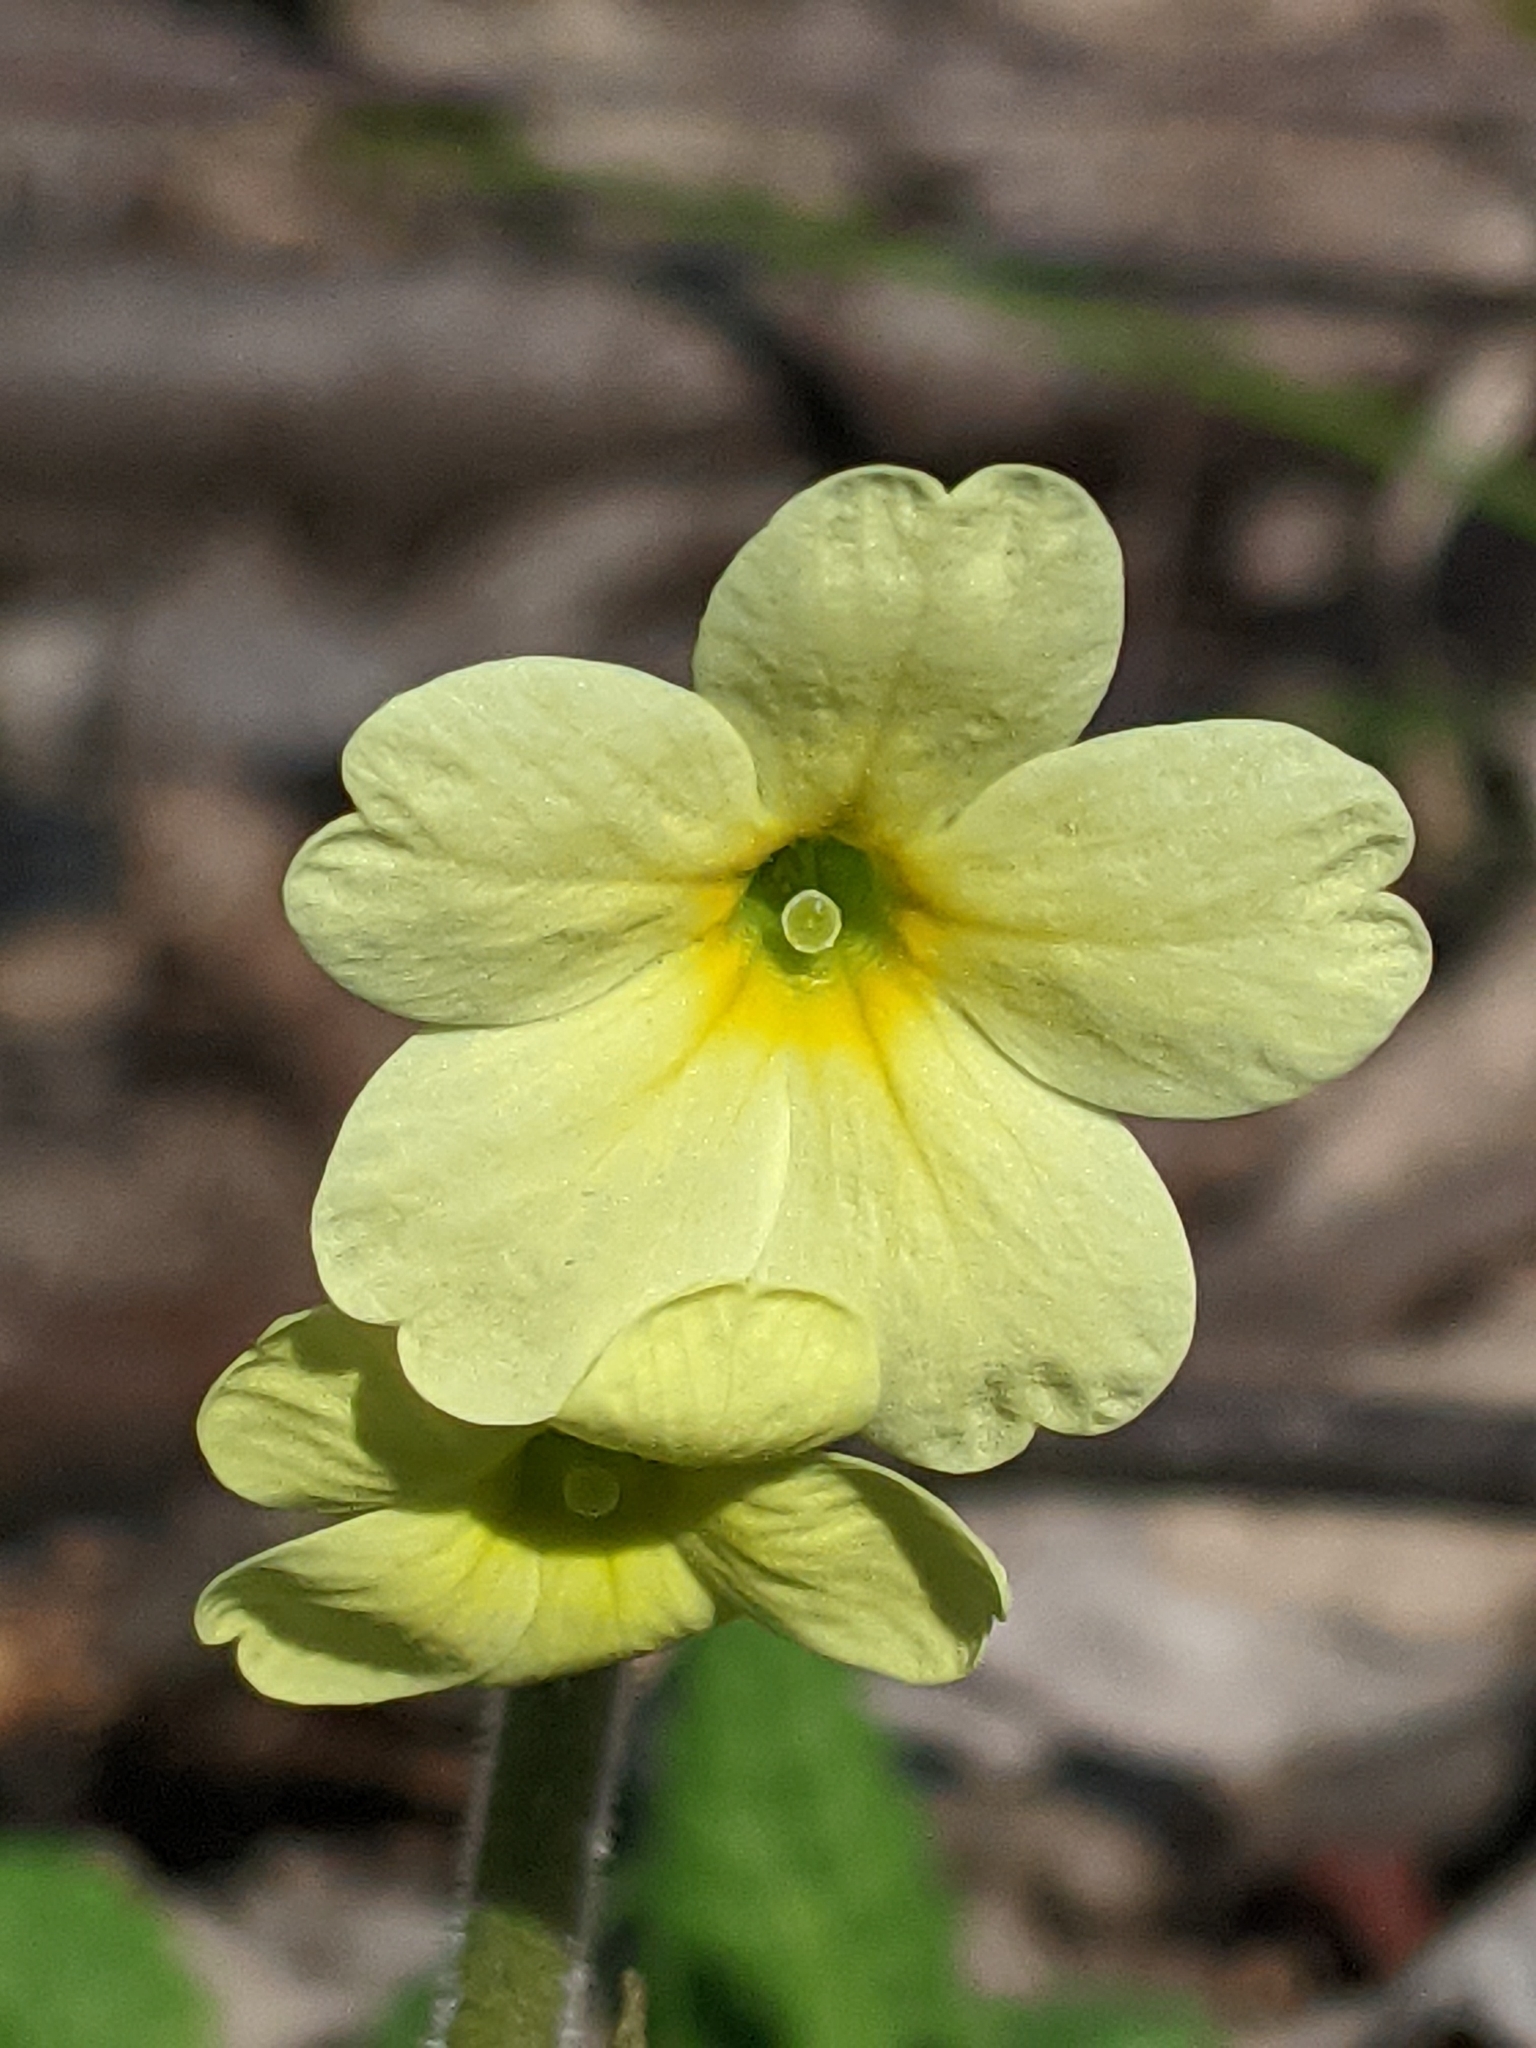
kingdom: Plantae
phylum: Tracheophyta
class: Magnoliopsida
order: Ericales
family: Primulaceae
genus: Primula
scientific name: Primula elatior
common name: Oxlip
